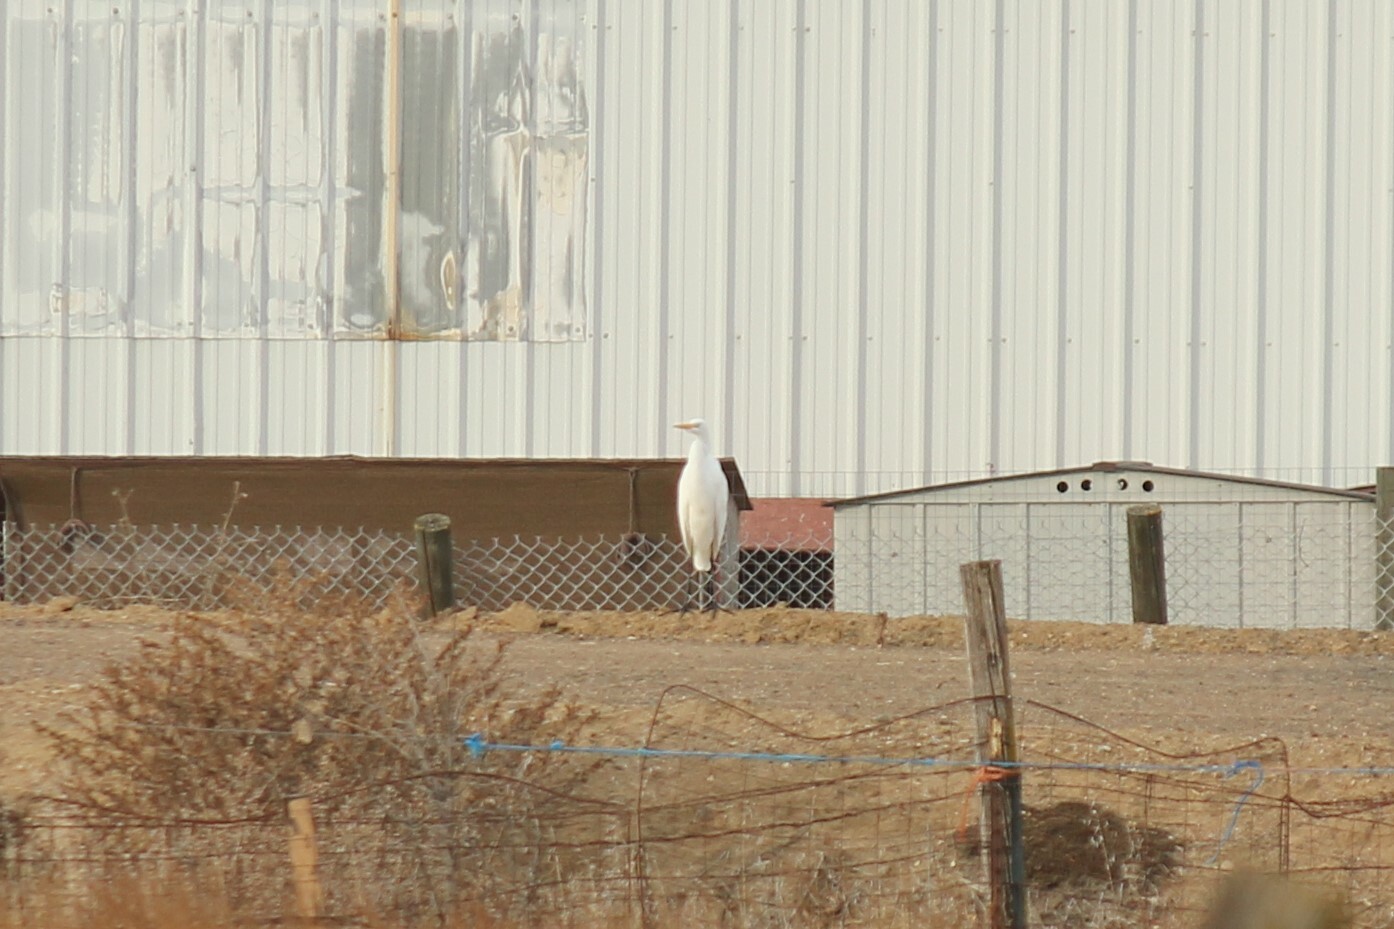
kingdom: Animalia
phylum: Chordata
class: Aves
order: Pelecaniformes
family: Ardeidae
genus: Ardea
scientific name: Ardea alba
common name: Great egret
